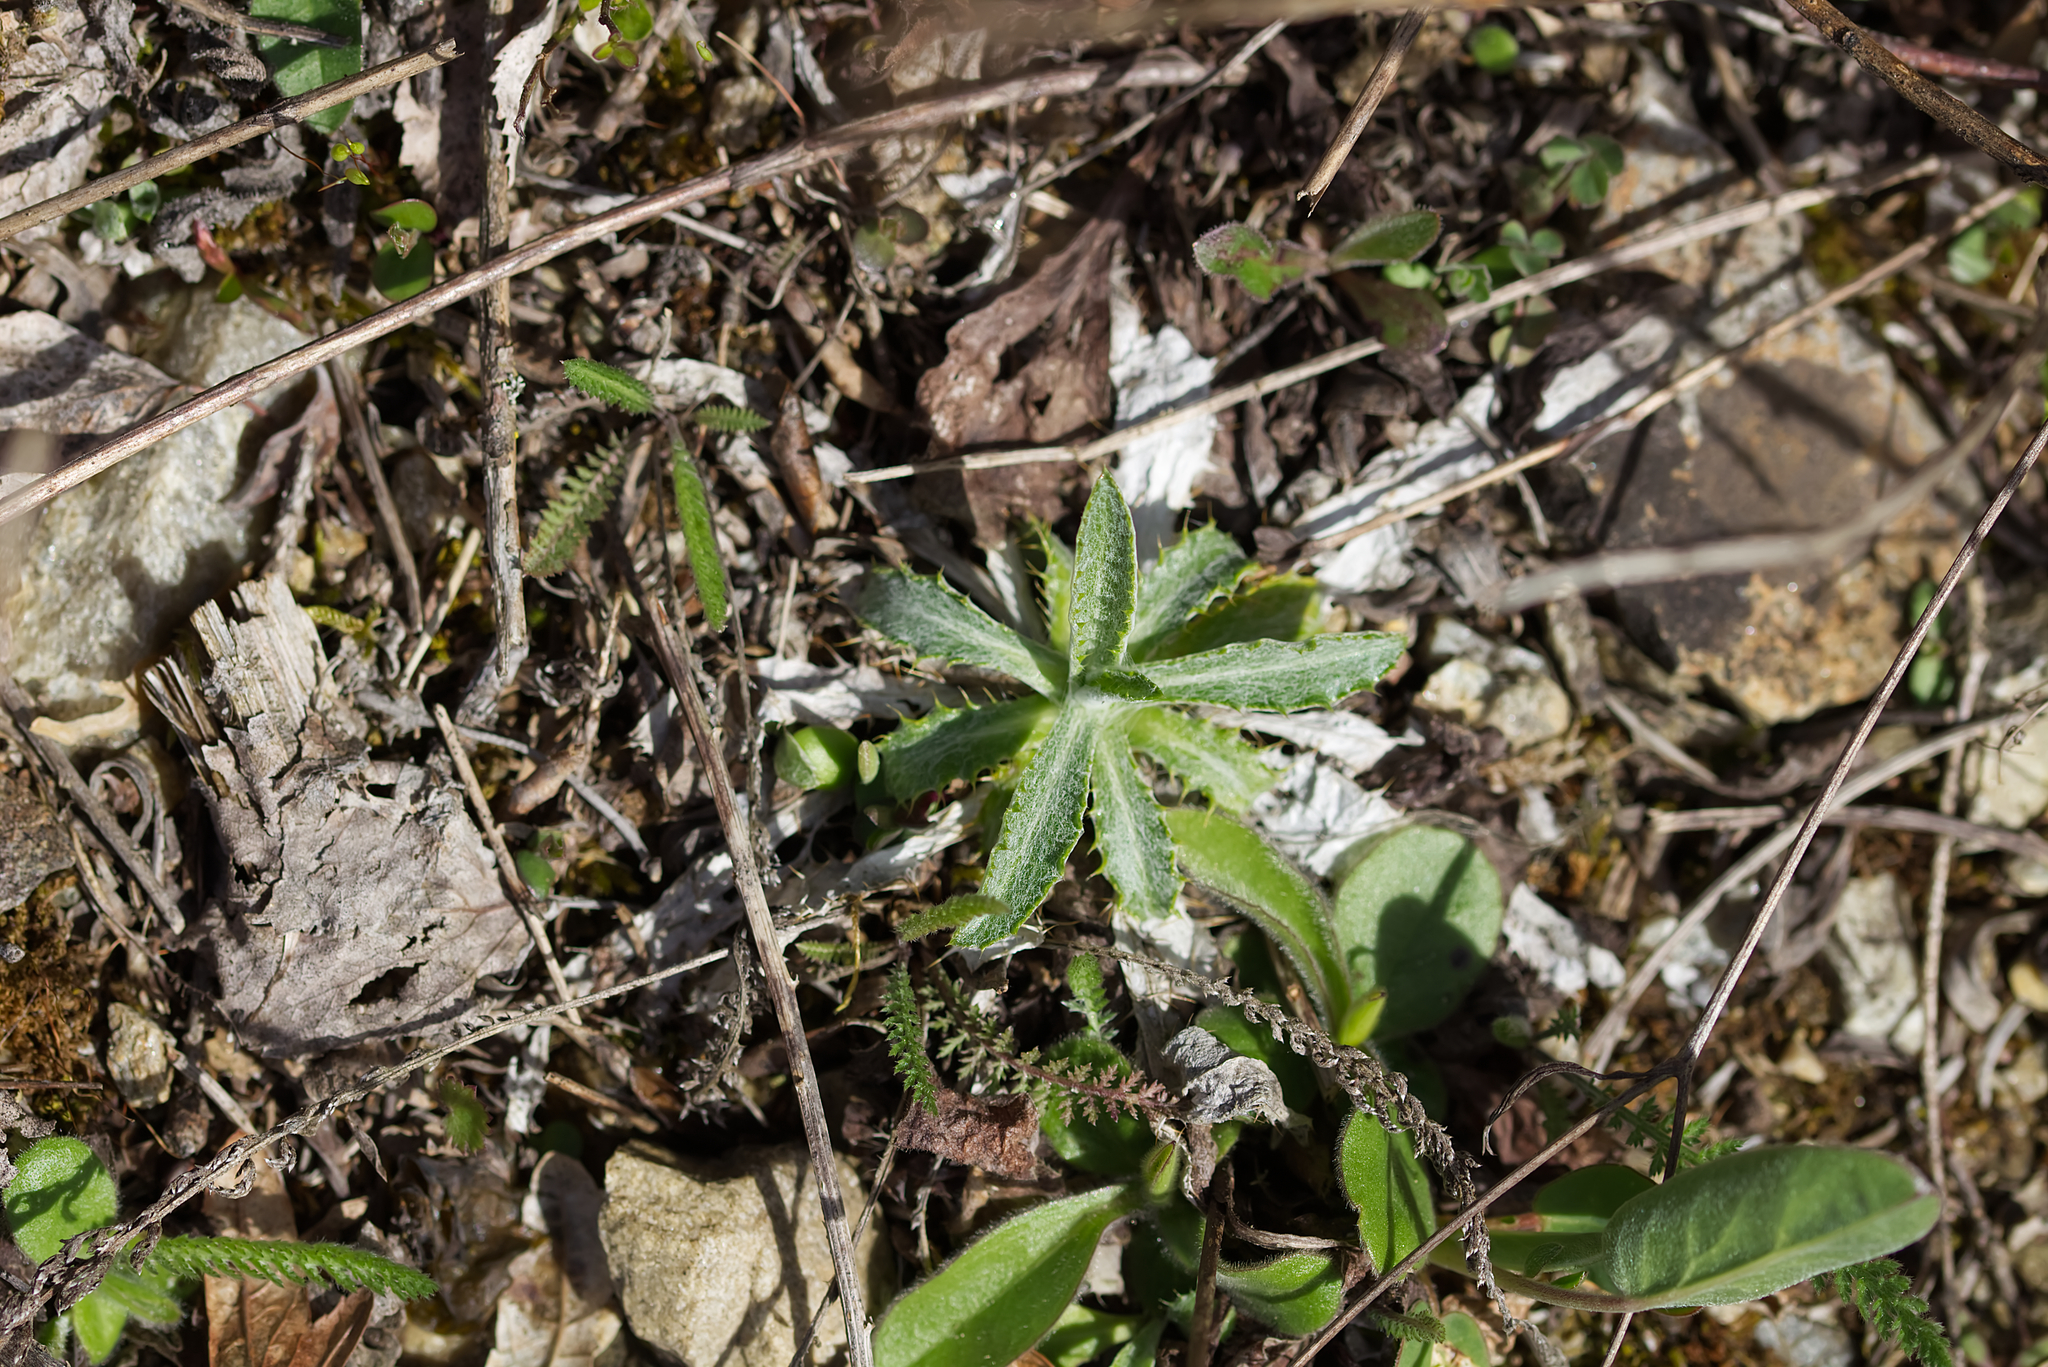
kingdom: Plantae
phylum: Tracheophyta
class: Magnoliopsida
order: Asterales
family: Asteraceae
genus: Carlina
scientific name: Carlina biebersteinii
